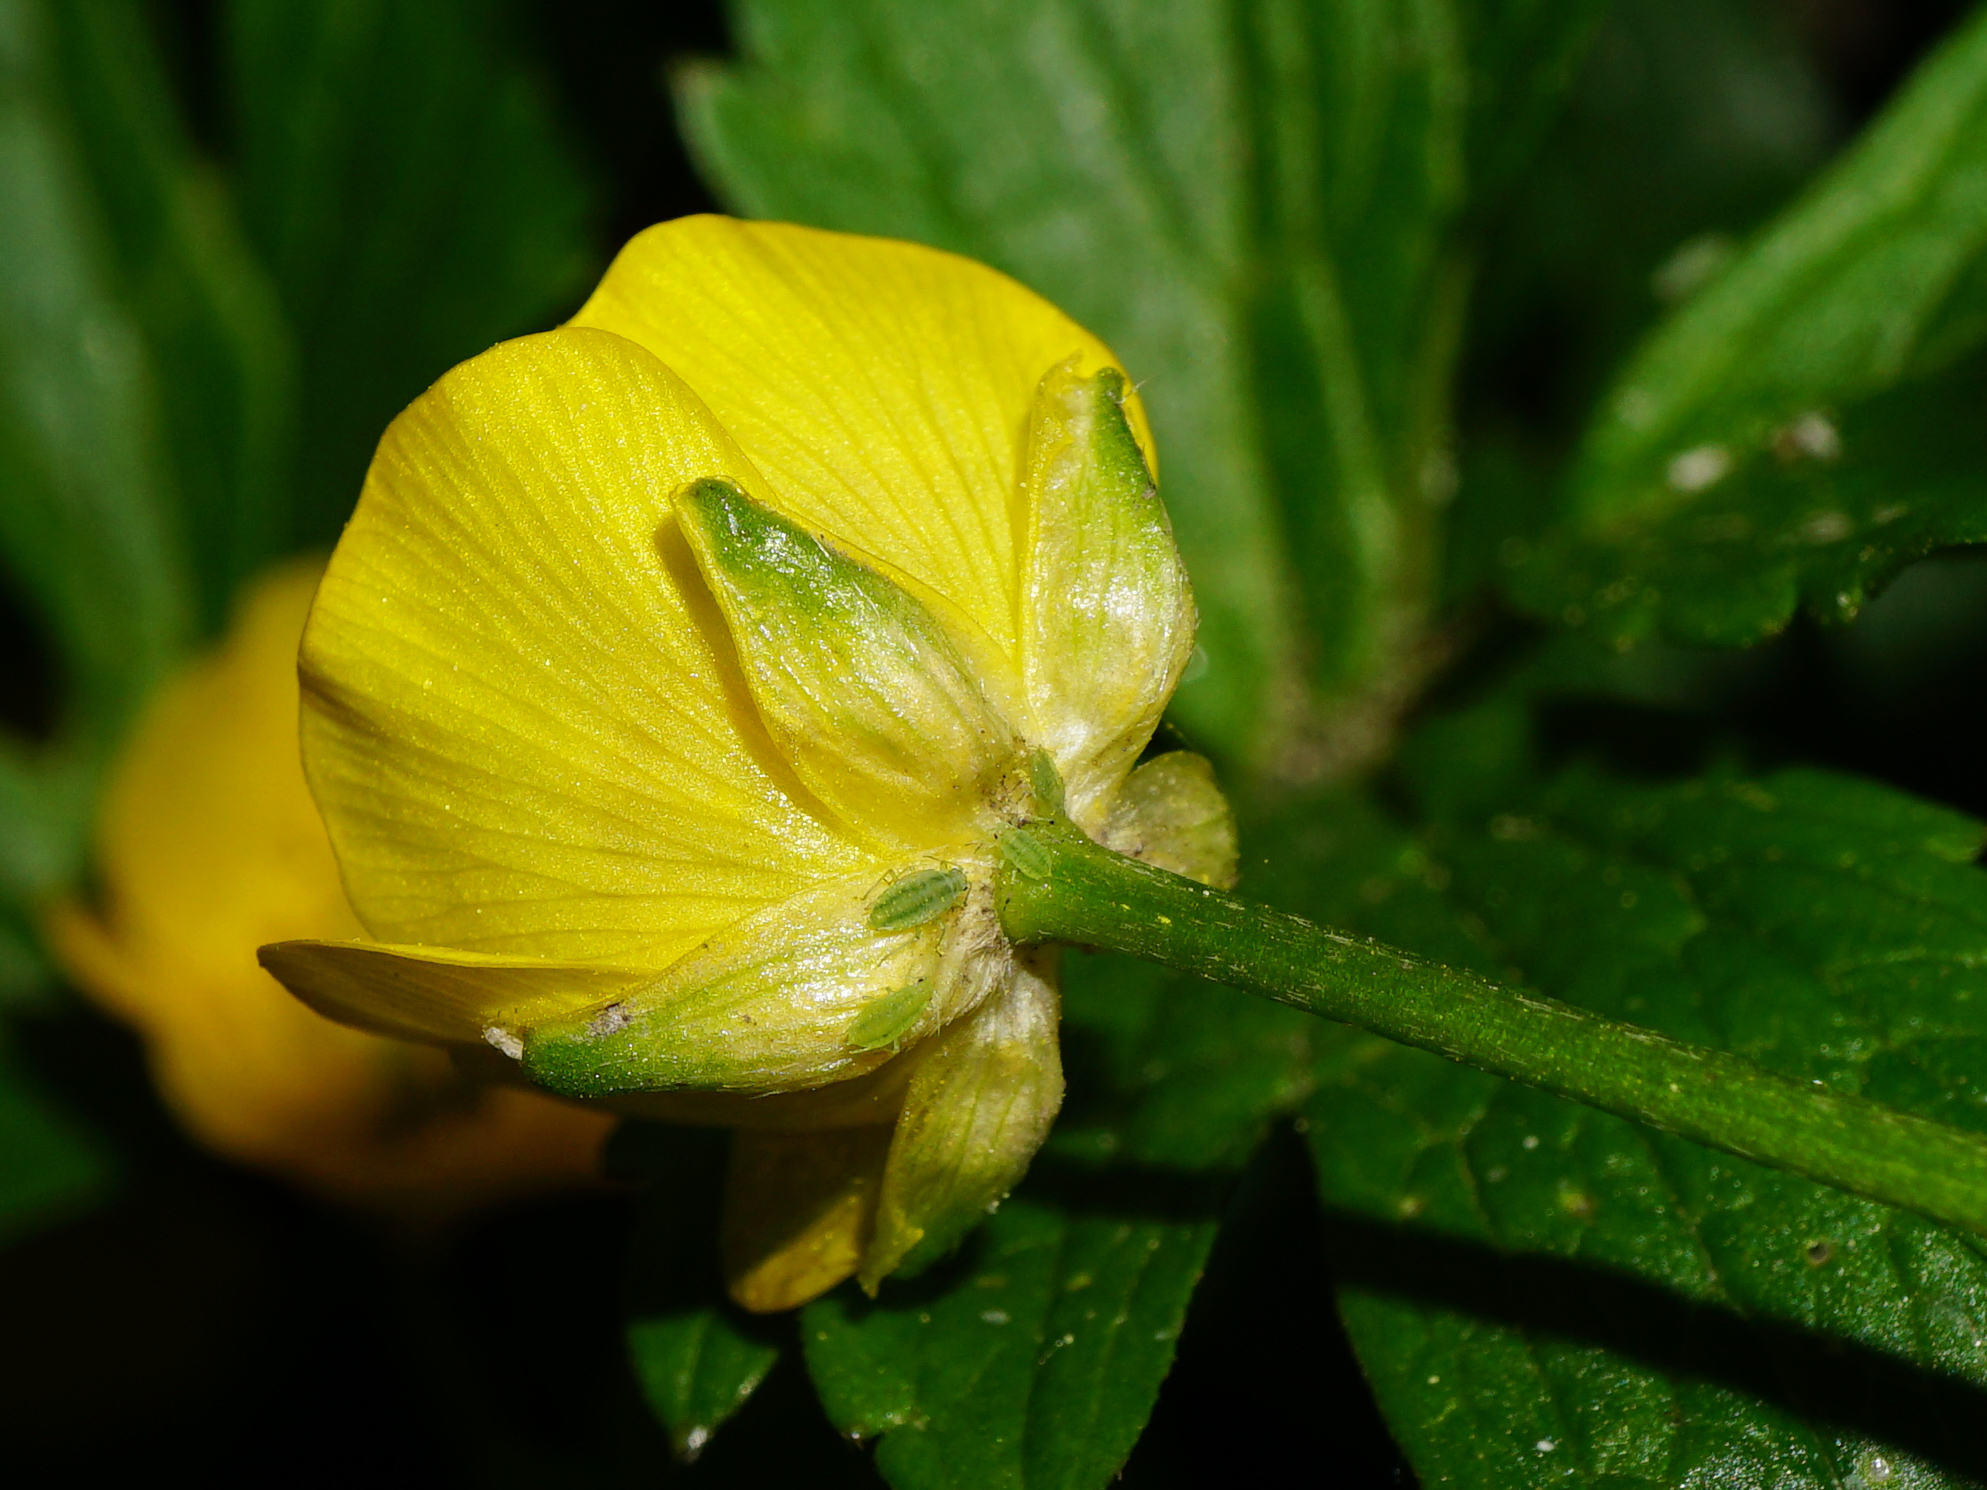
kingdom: Plantae
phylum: Tracheophyta
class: Magnoliopsida
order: Ranunculales
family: Ranunculaceae
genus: Ranunculus
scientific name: Ranunculus repens
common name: Creeping buttercup
